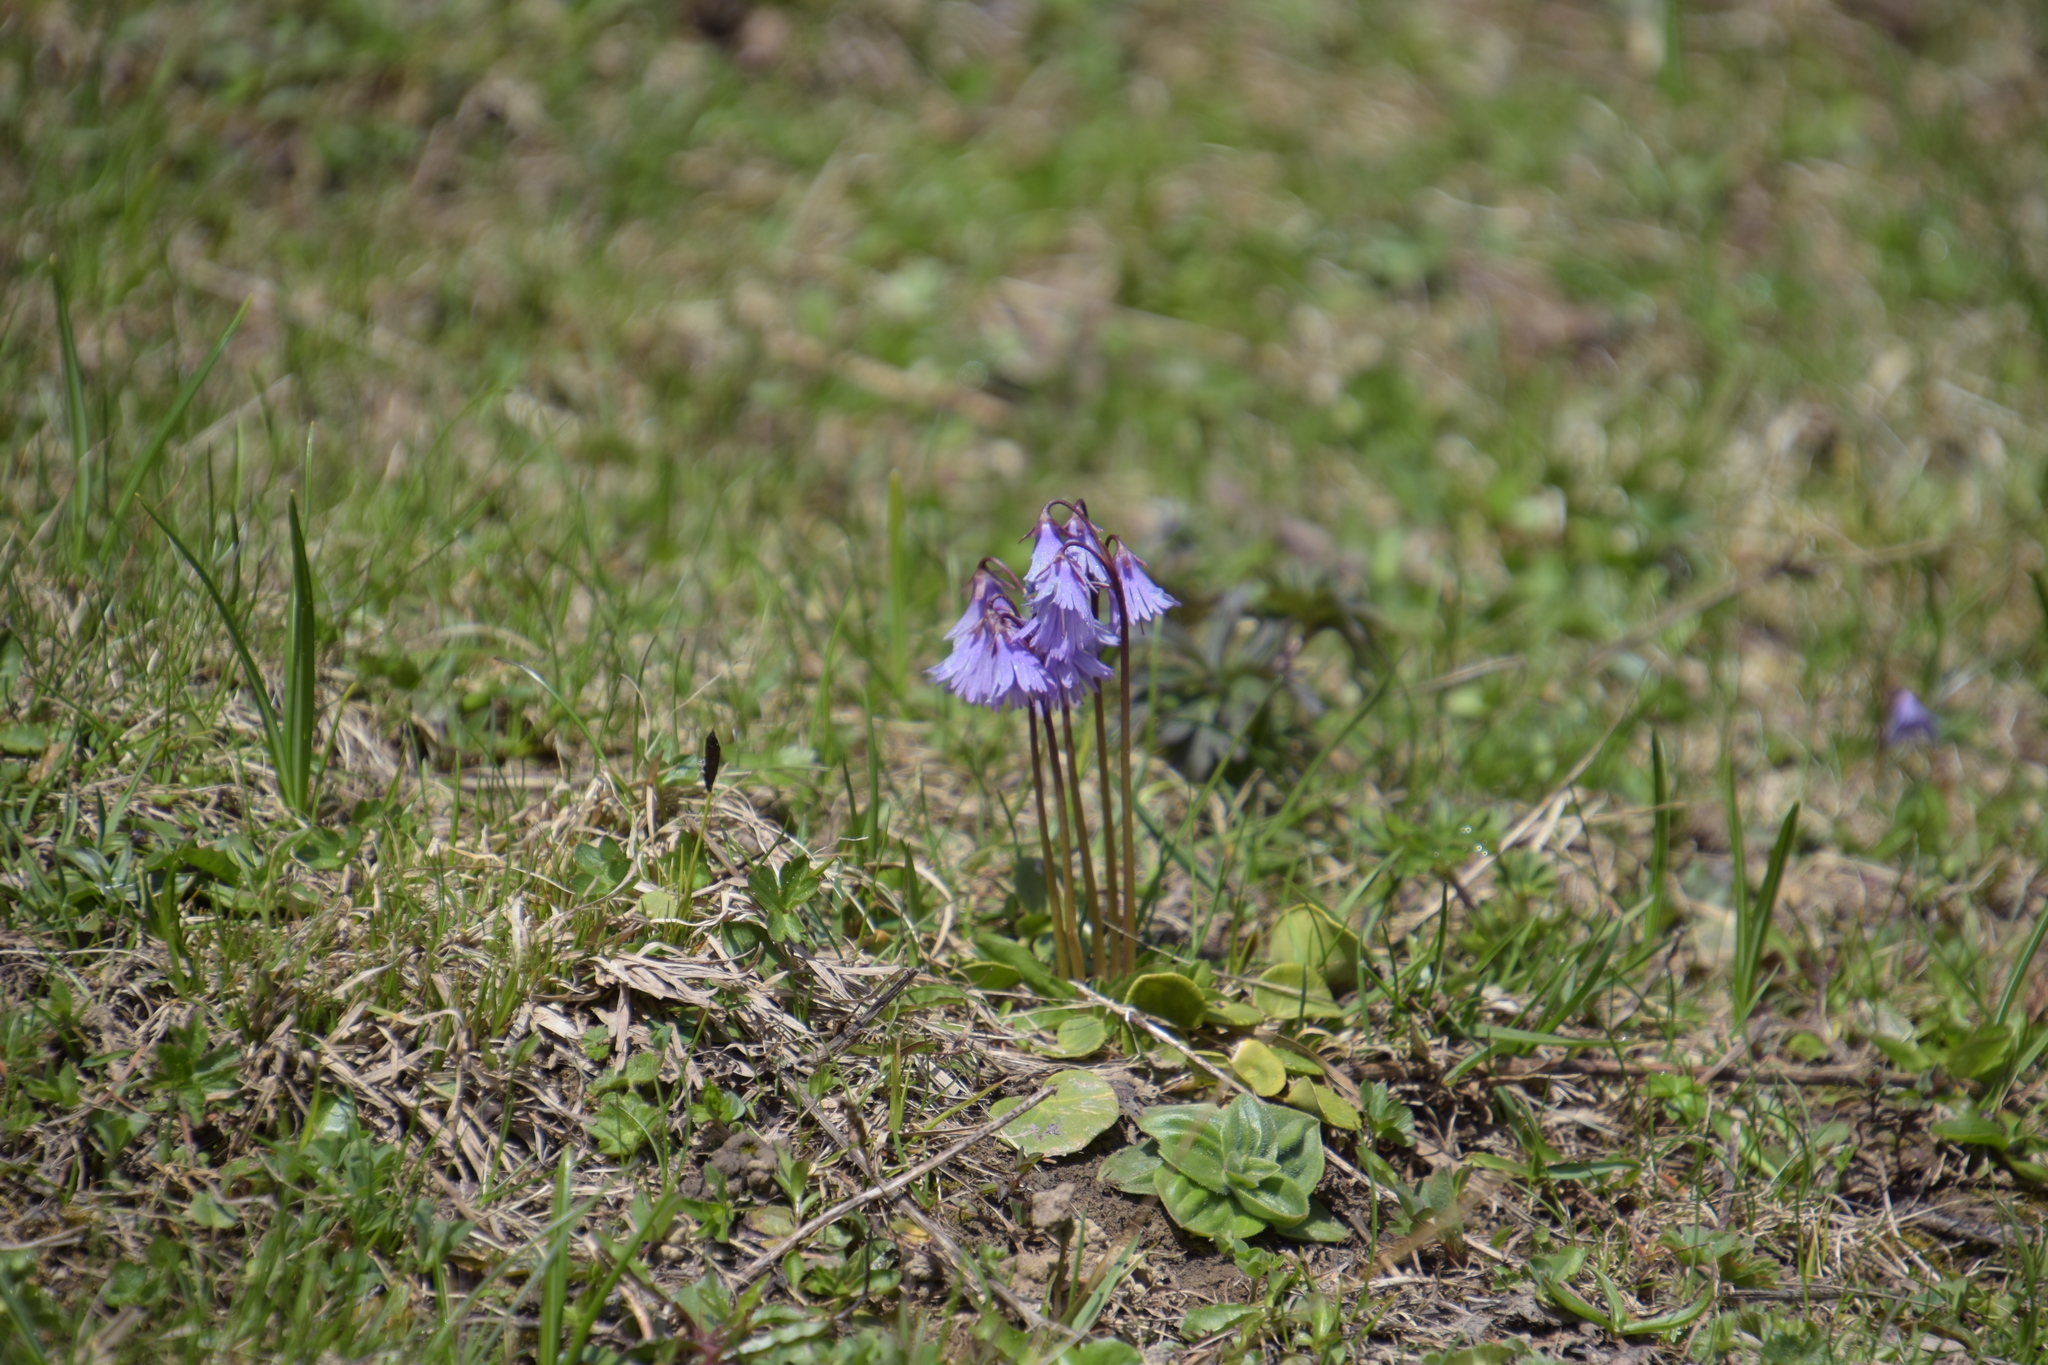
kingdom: Plantae
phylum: Tracheophyta
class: Magnoliopsida
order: Ericales
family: Primulaceae
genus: Soldanella
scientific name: Soldanella alpina
